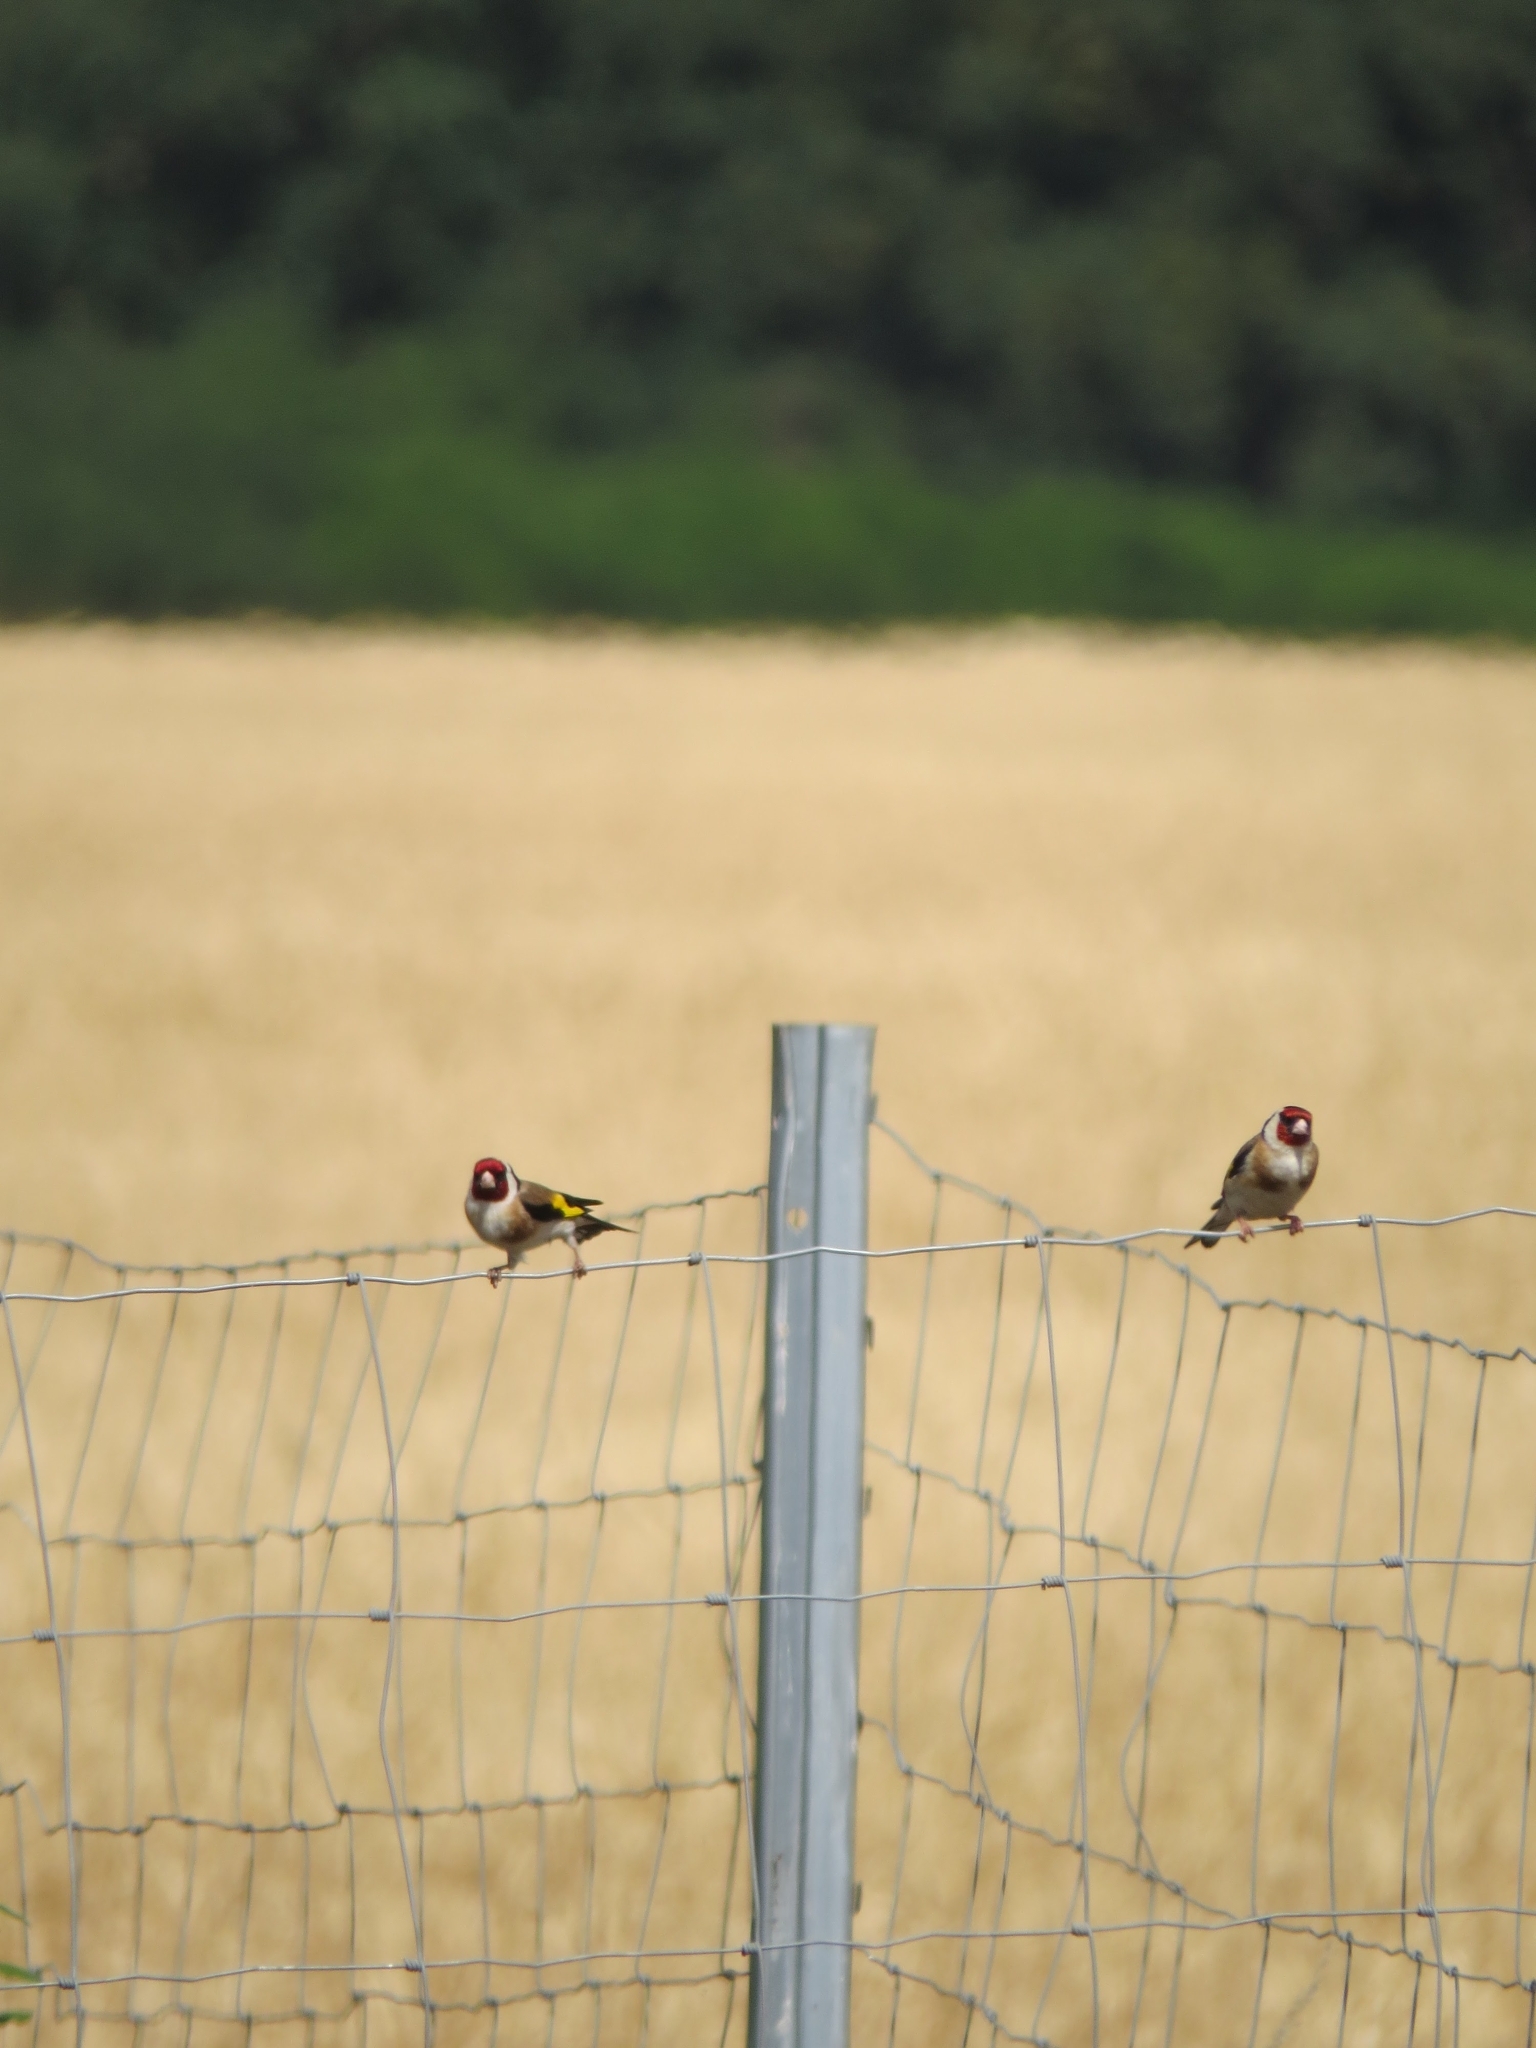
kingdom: Animalia
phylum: Chordata
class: Aves
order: Passeriformes
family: Fringillidae
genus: Carduelis
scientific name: Carduelis carduelis
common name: European goldfinch
